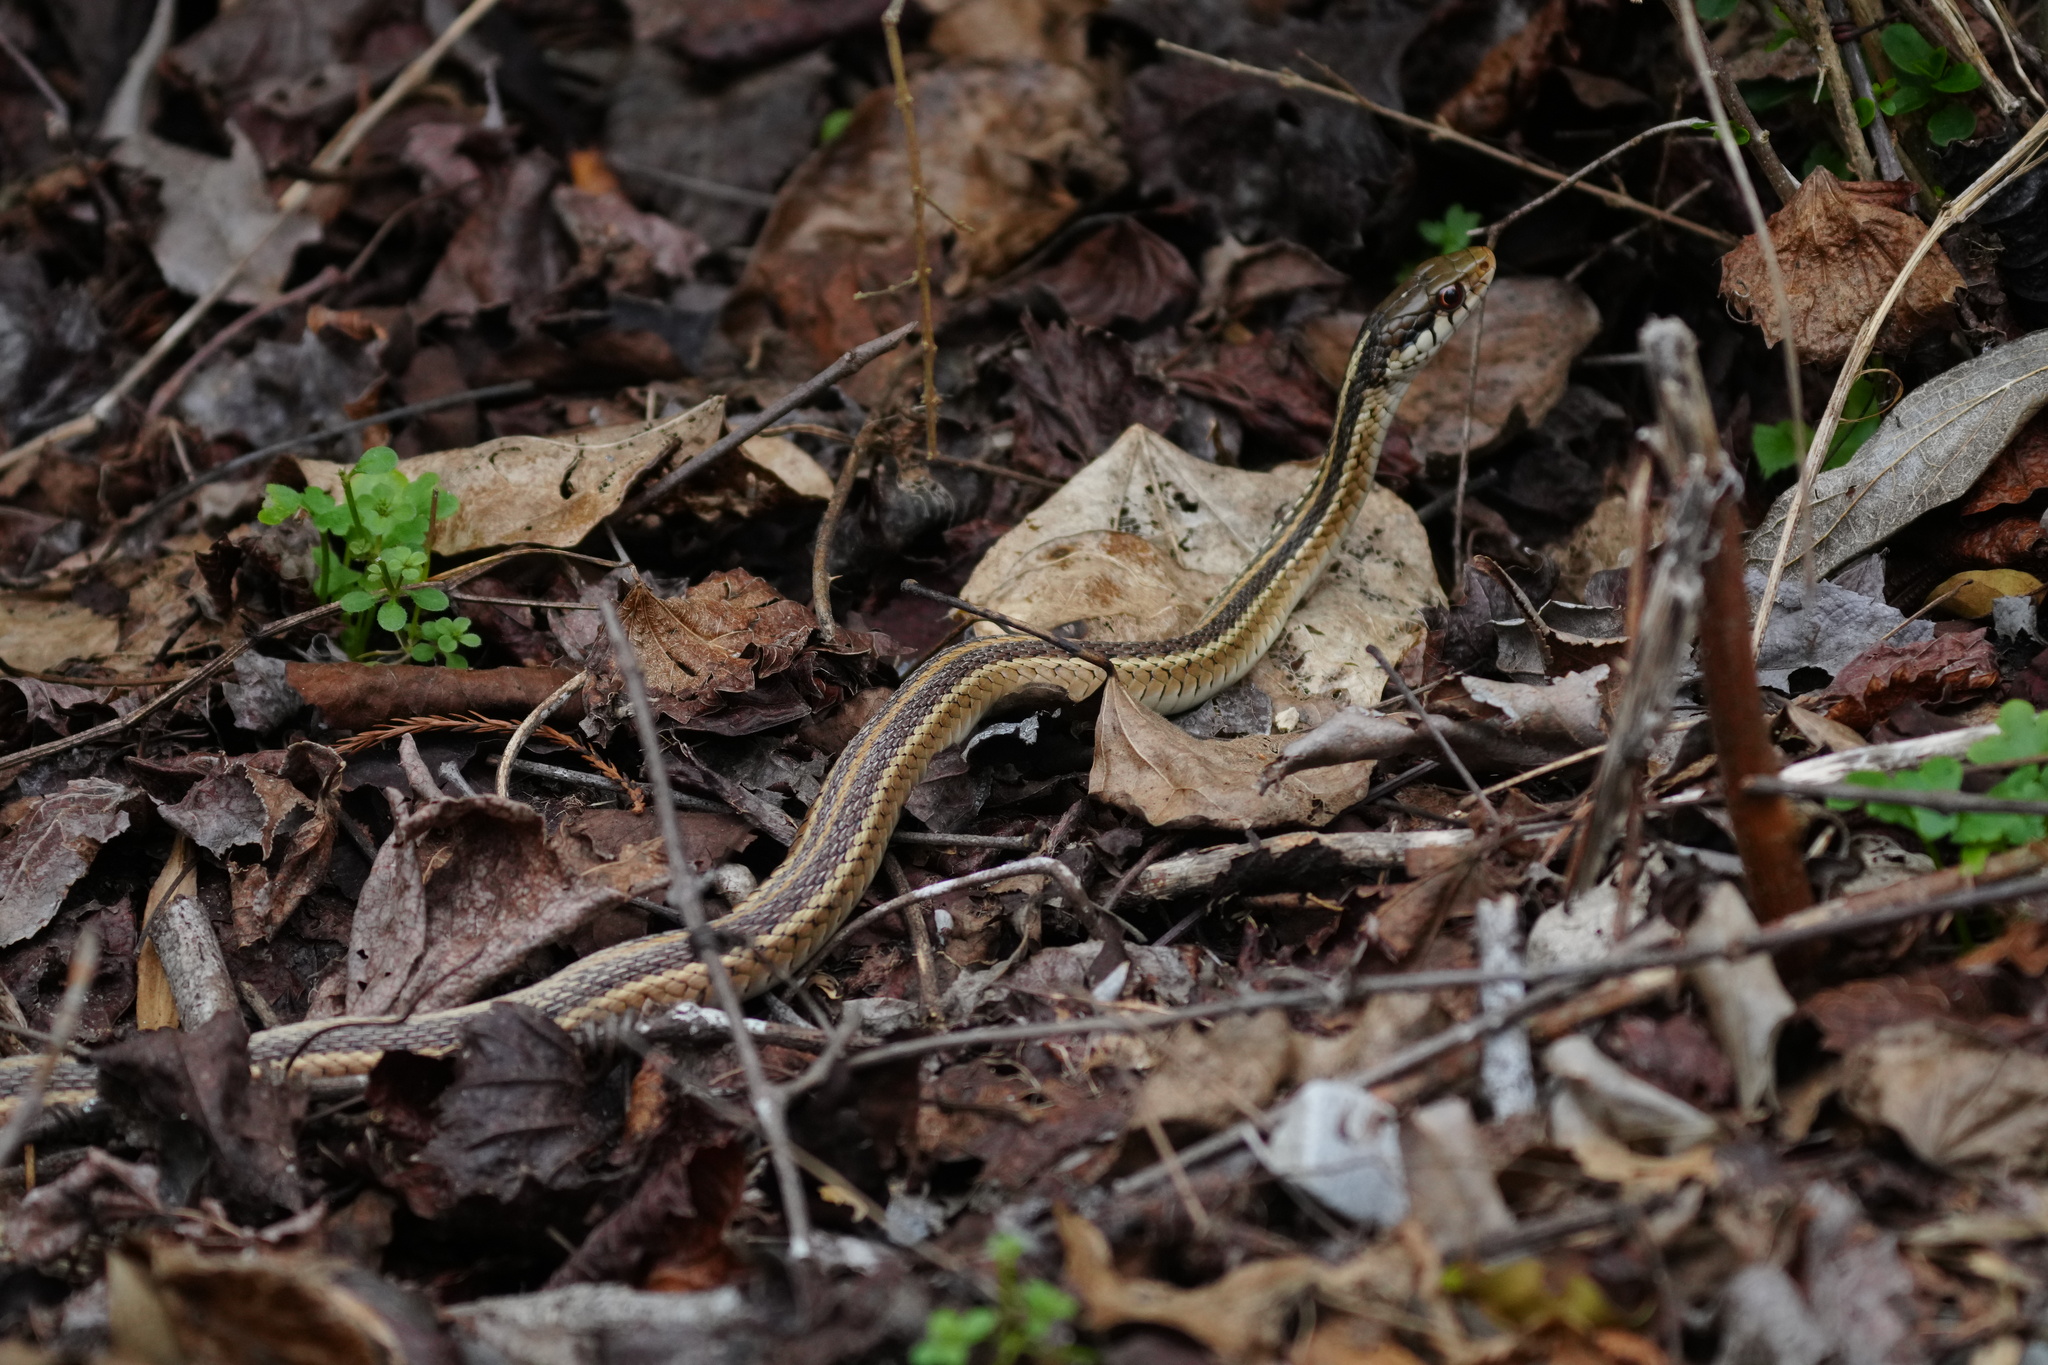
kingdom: Animalia
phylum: Chordata
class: Squamata
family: Colubridae
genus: Thamnophis
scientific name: Thamnophis sirtalis
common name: Common garter snake
